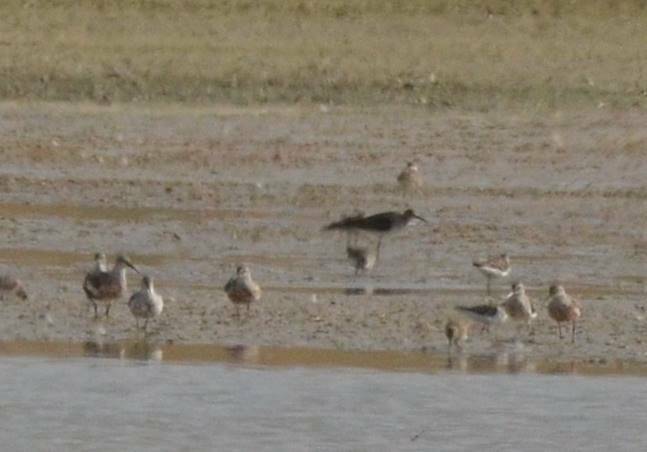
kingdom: Animalia
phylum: Chordata
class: Aves
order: Charadriiformes
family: Scolopacidae
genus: Numenius
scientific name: Numenius phaeopus
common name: Whimbrel
